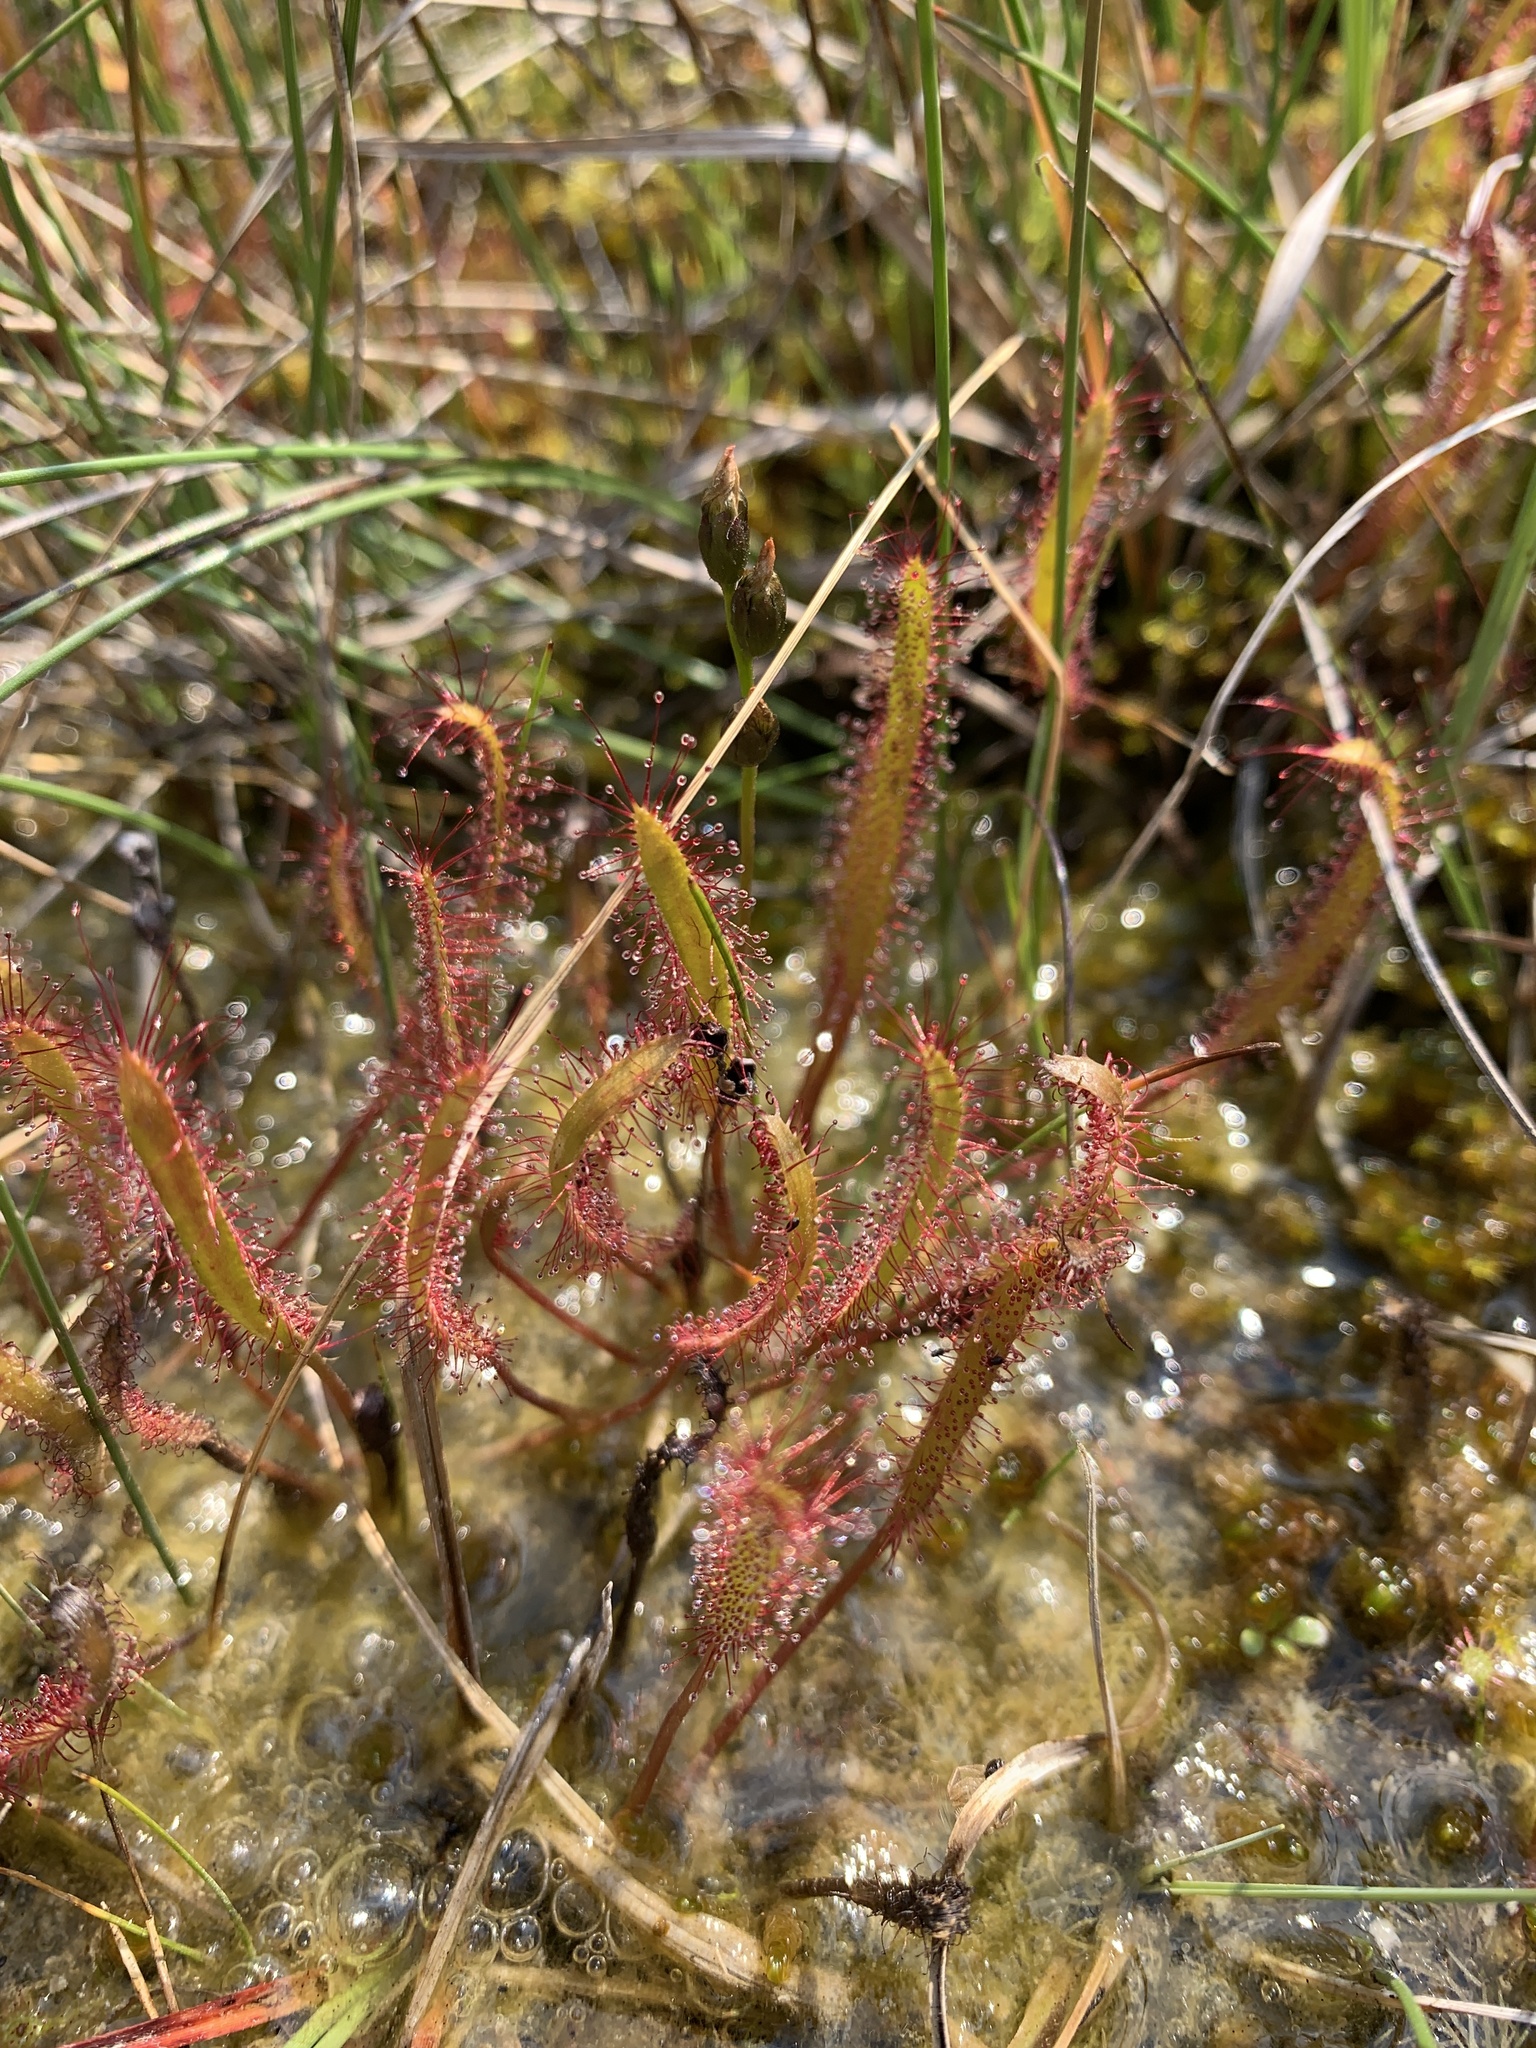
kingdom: Plantae
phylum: Tracheophyta
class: Magnoliopsida
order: Caryophyllales
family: Droseraceae
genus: Drosera
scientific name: Drosera linearis
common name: Linear-leaved sundew
